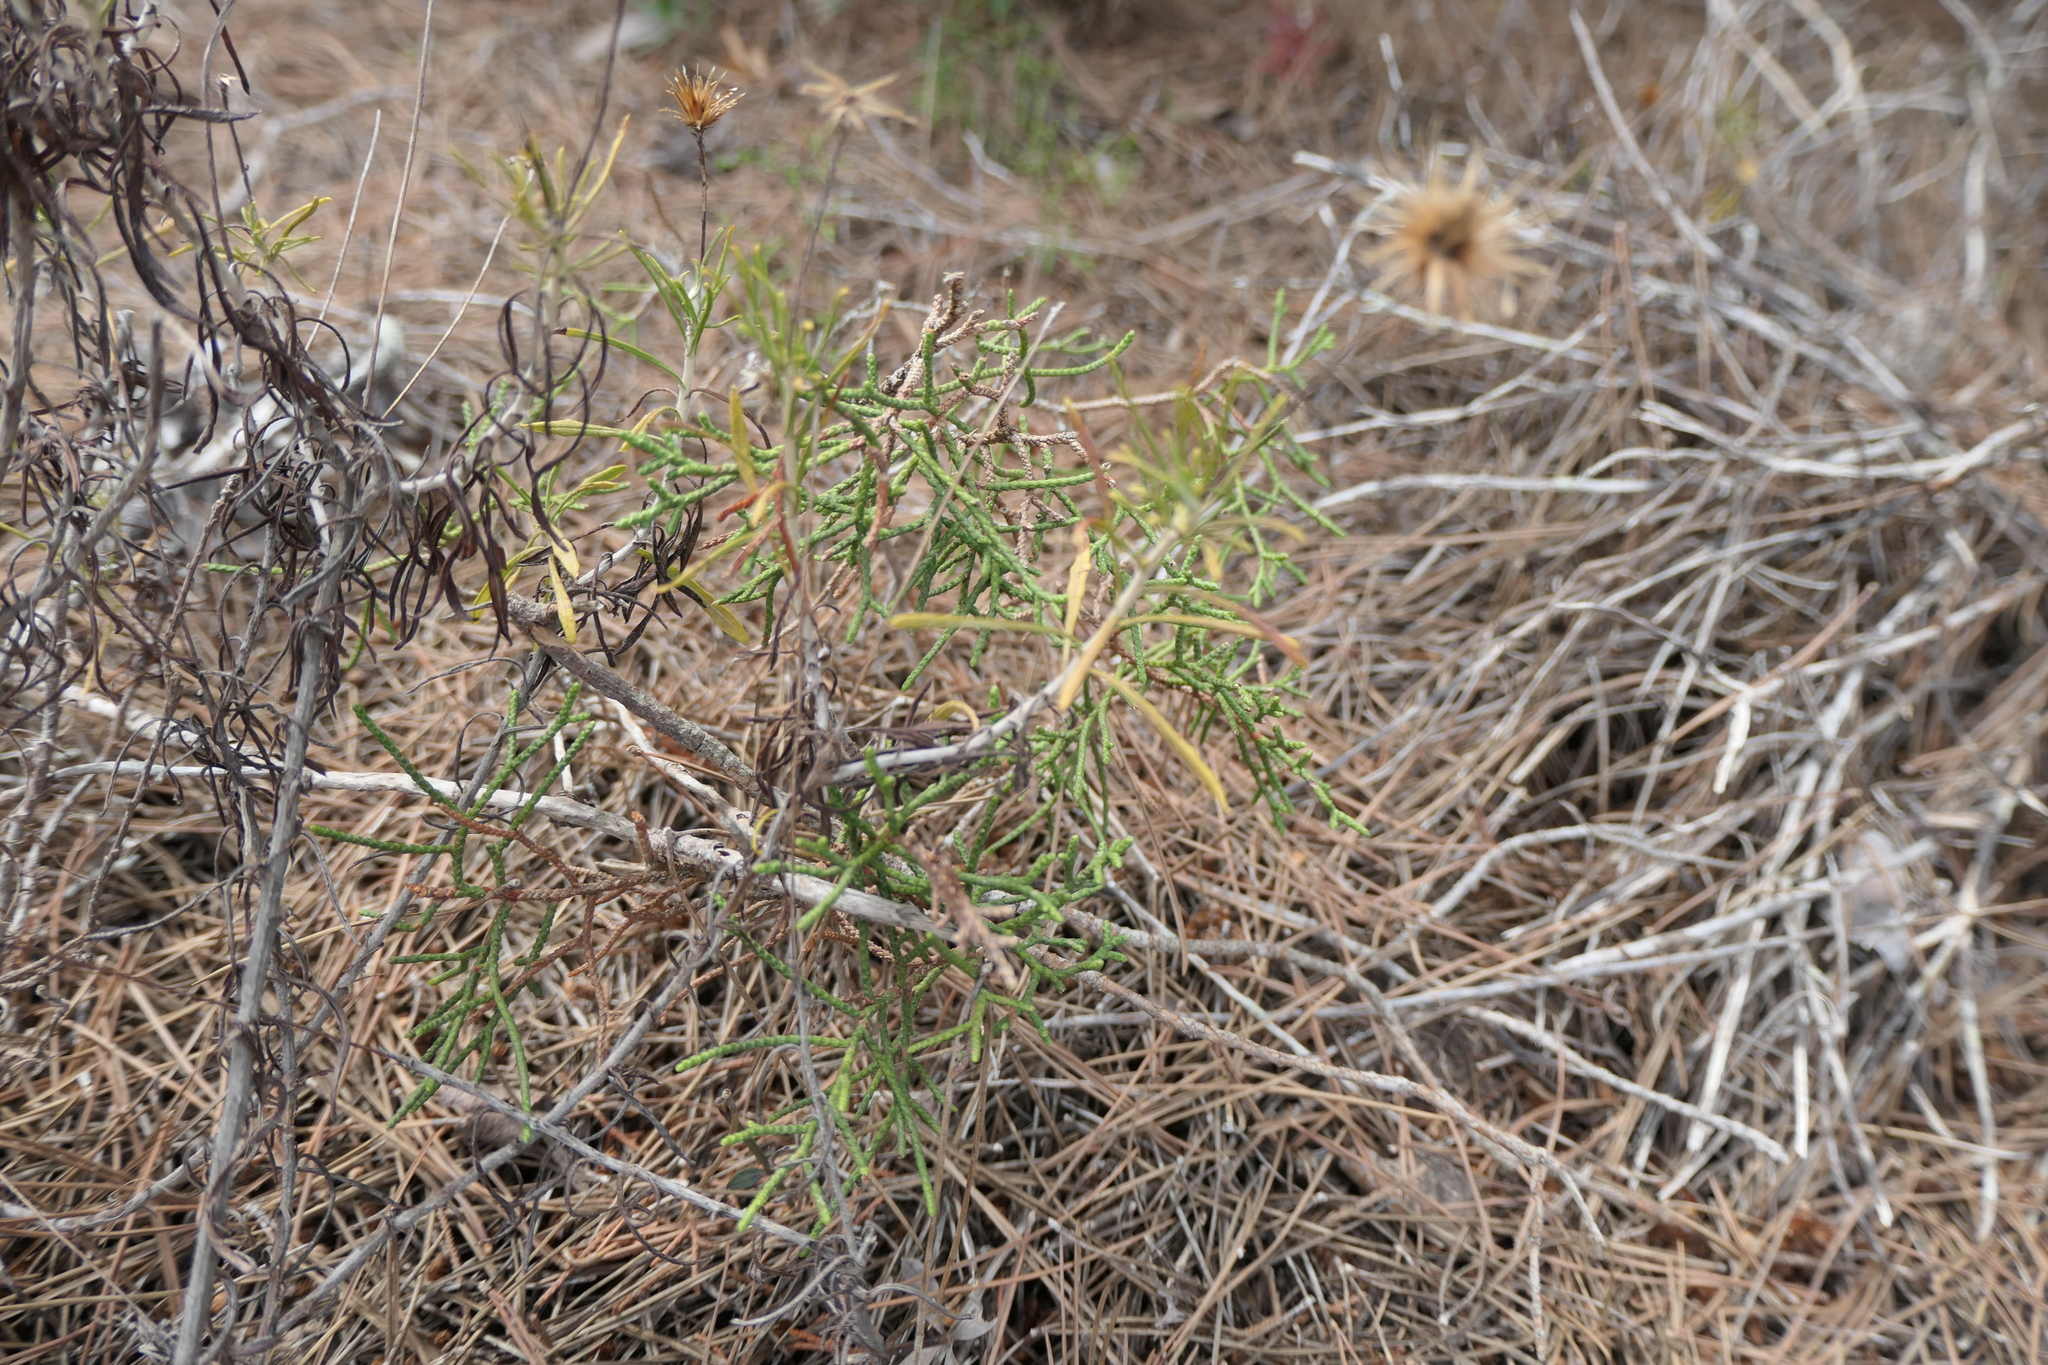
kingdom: Plantae
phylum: Tracheophyta
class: Magnoliopsida
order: Asterales
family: Asteraceae
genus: Phagnalon
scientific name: Phagnalon saxatile
